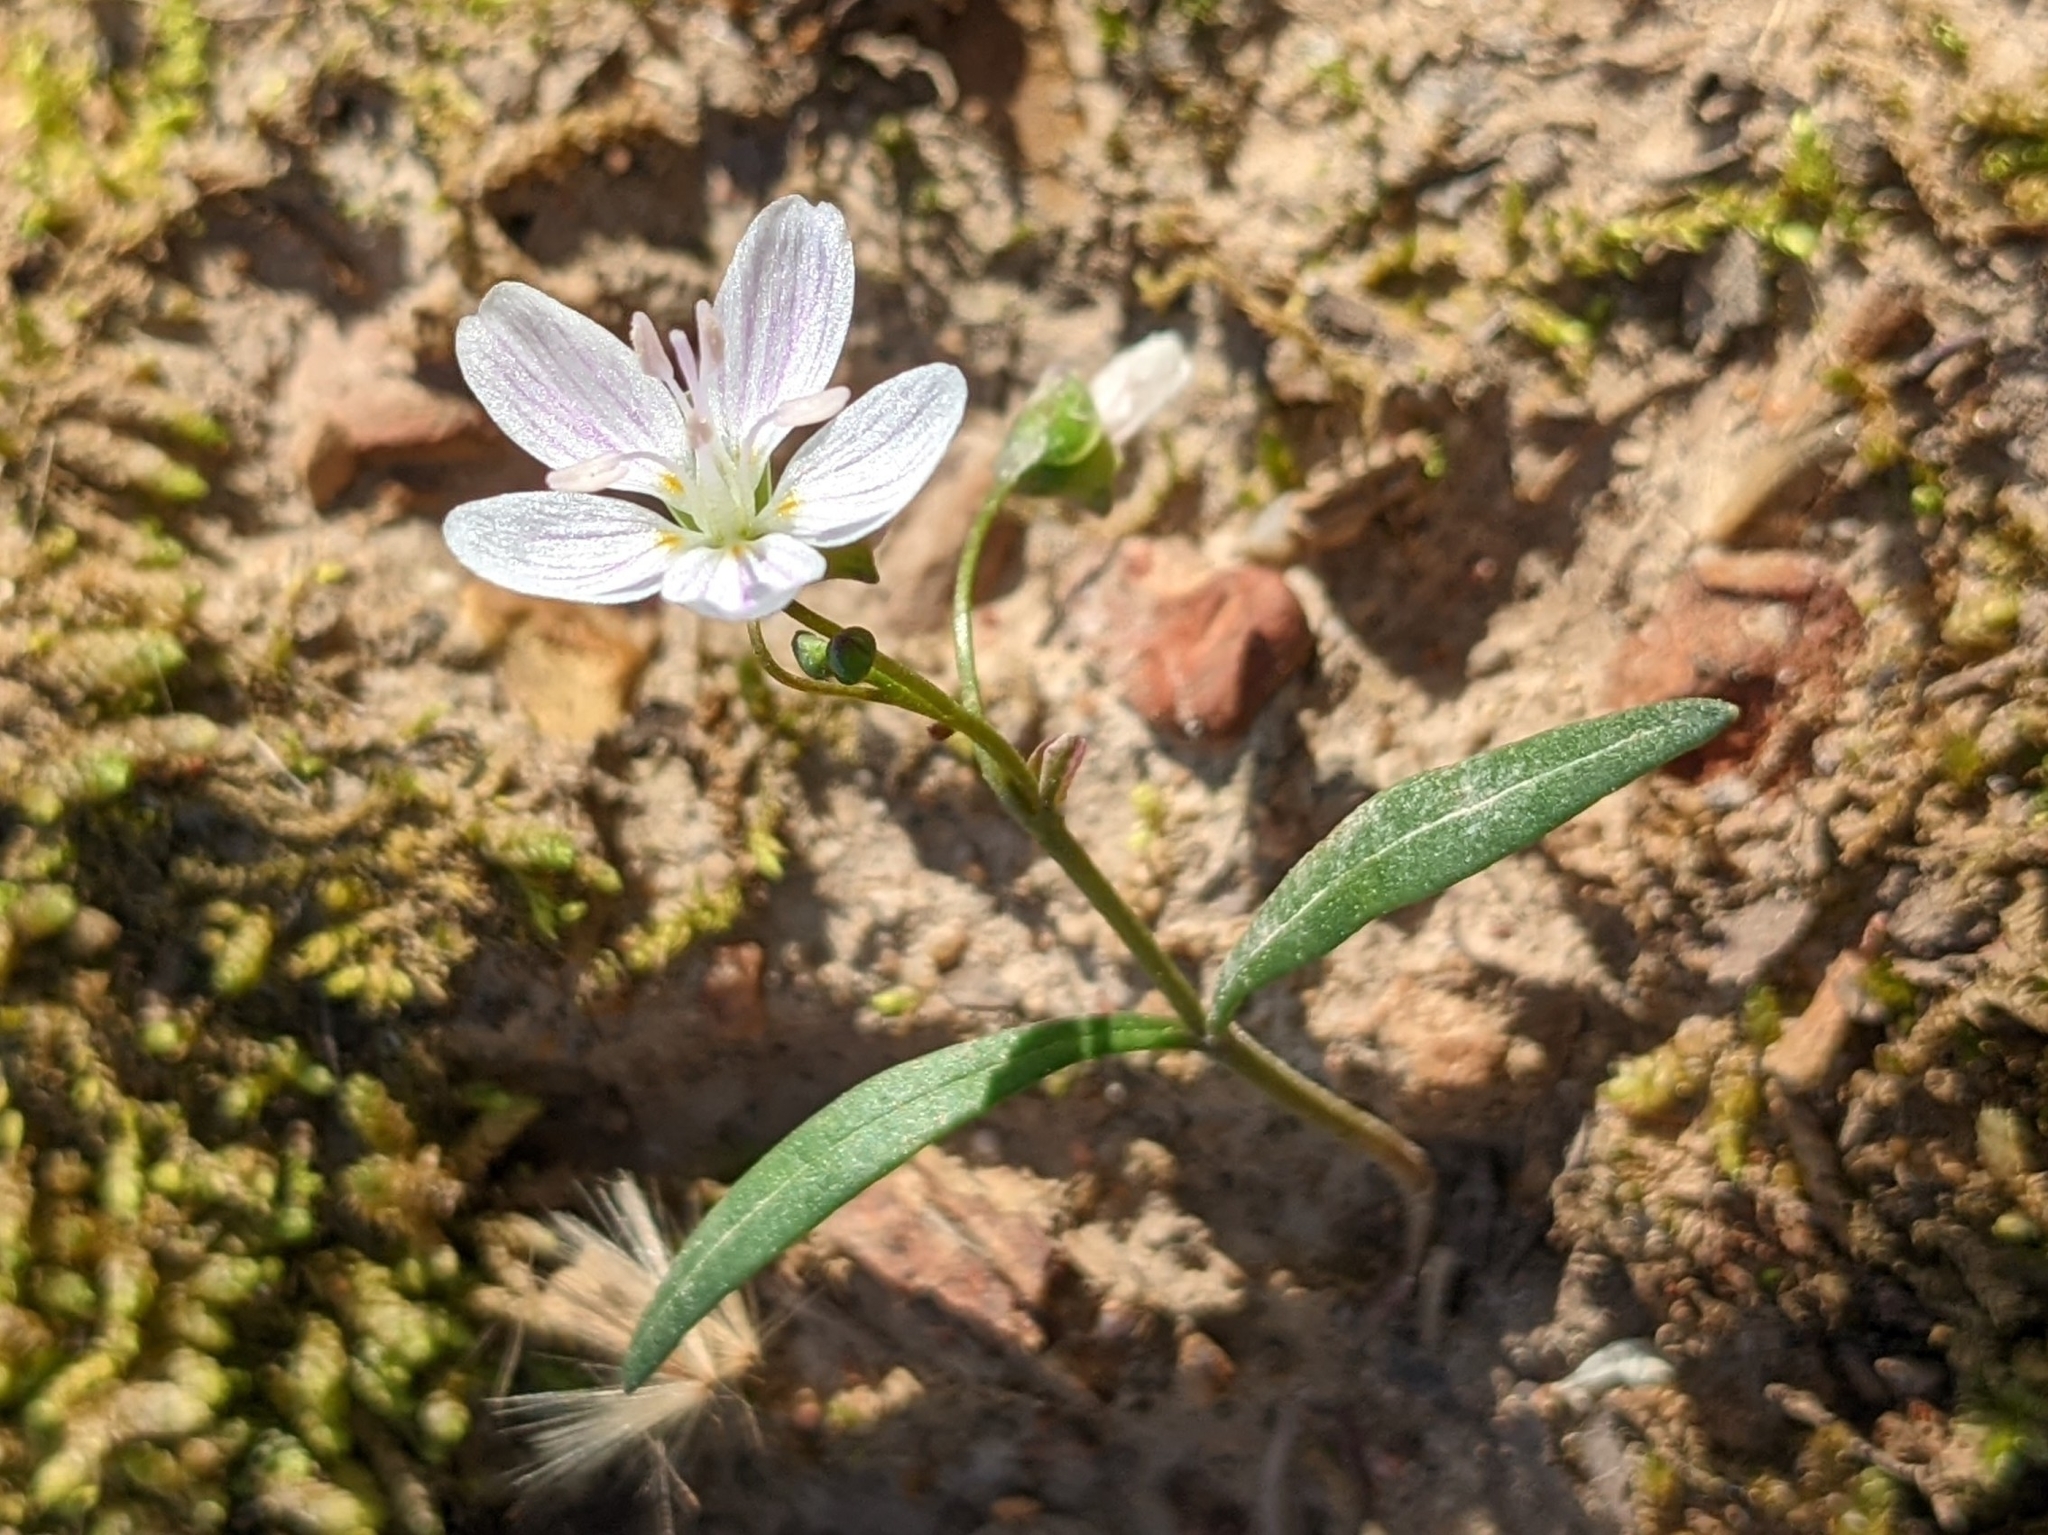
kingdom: Plantae
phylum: Tracheophyta
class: Magnoliopsida
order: Caryophyllales
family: Montiaceae
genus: Claytonia
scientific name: Claytonia virginica
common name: Virginia springbeauty
